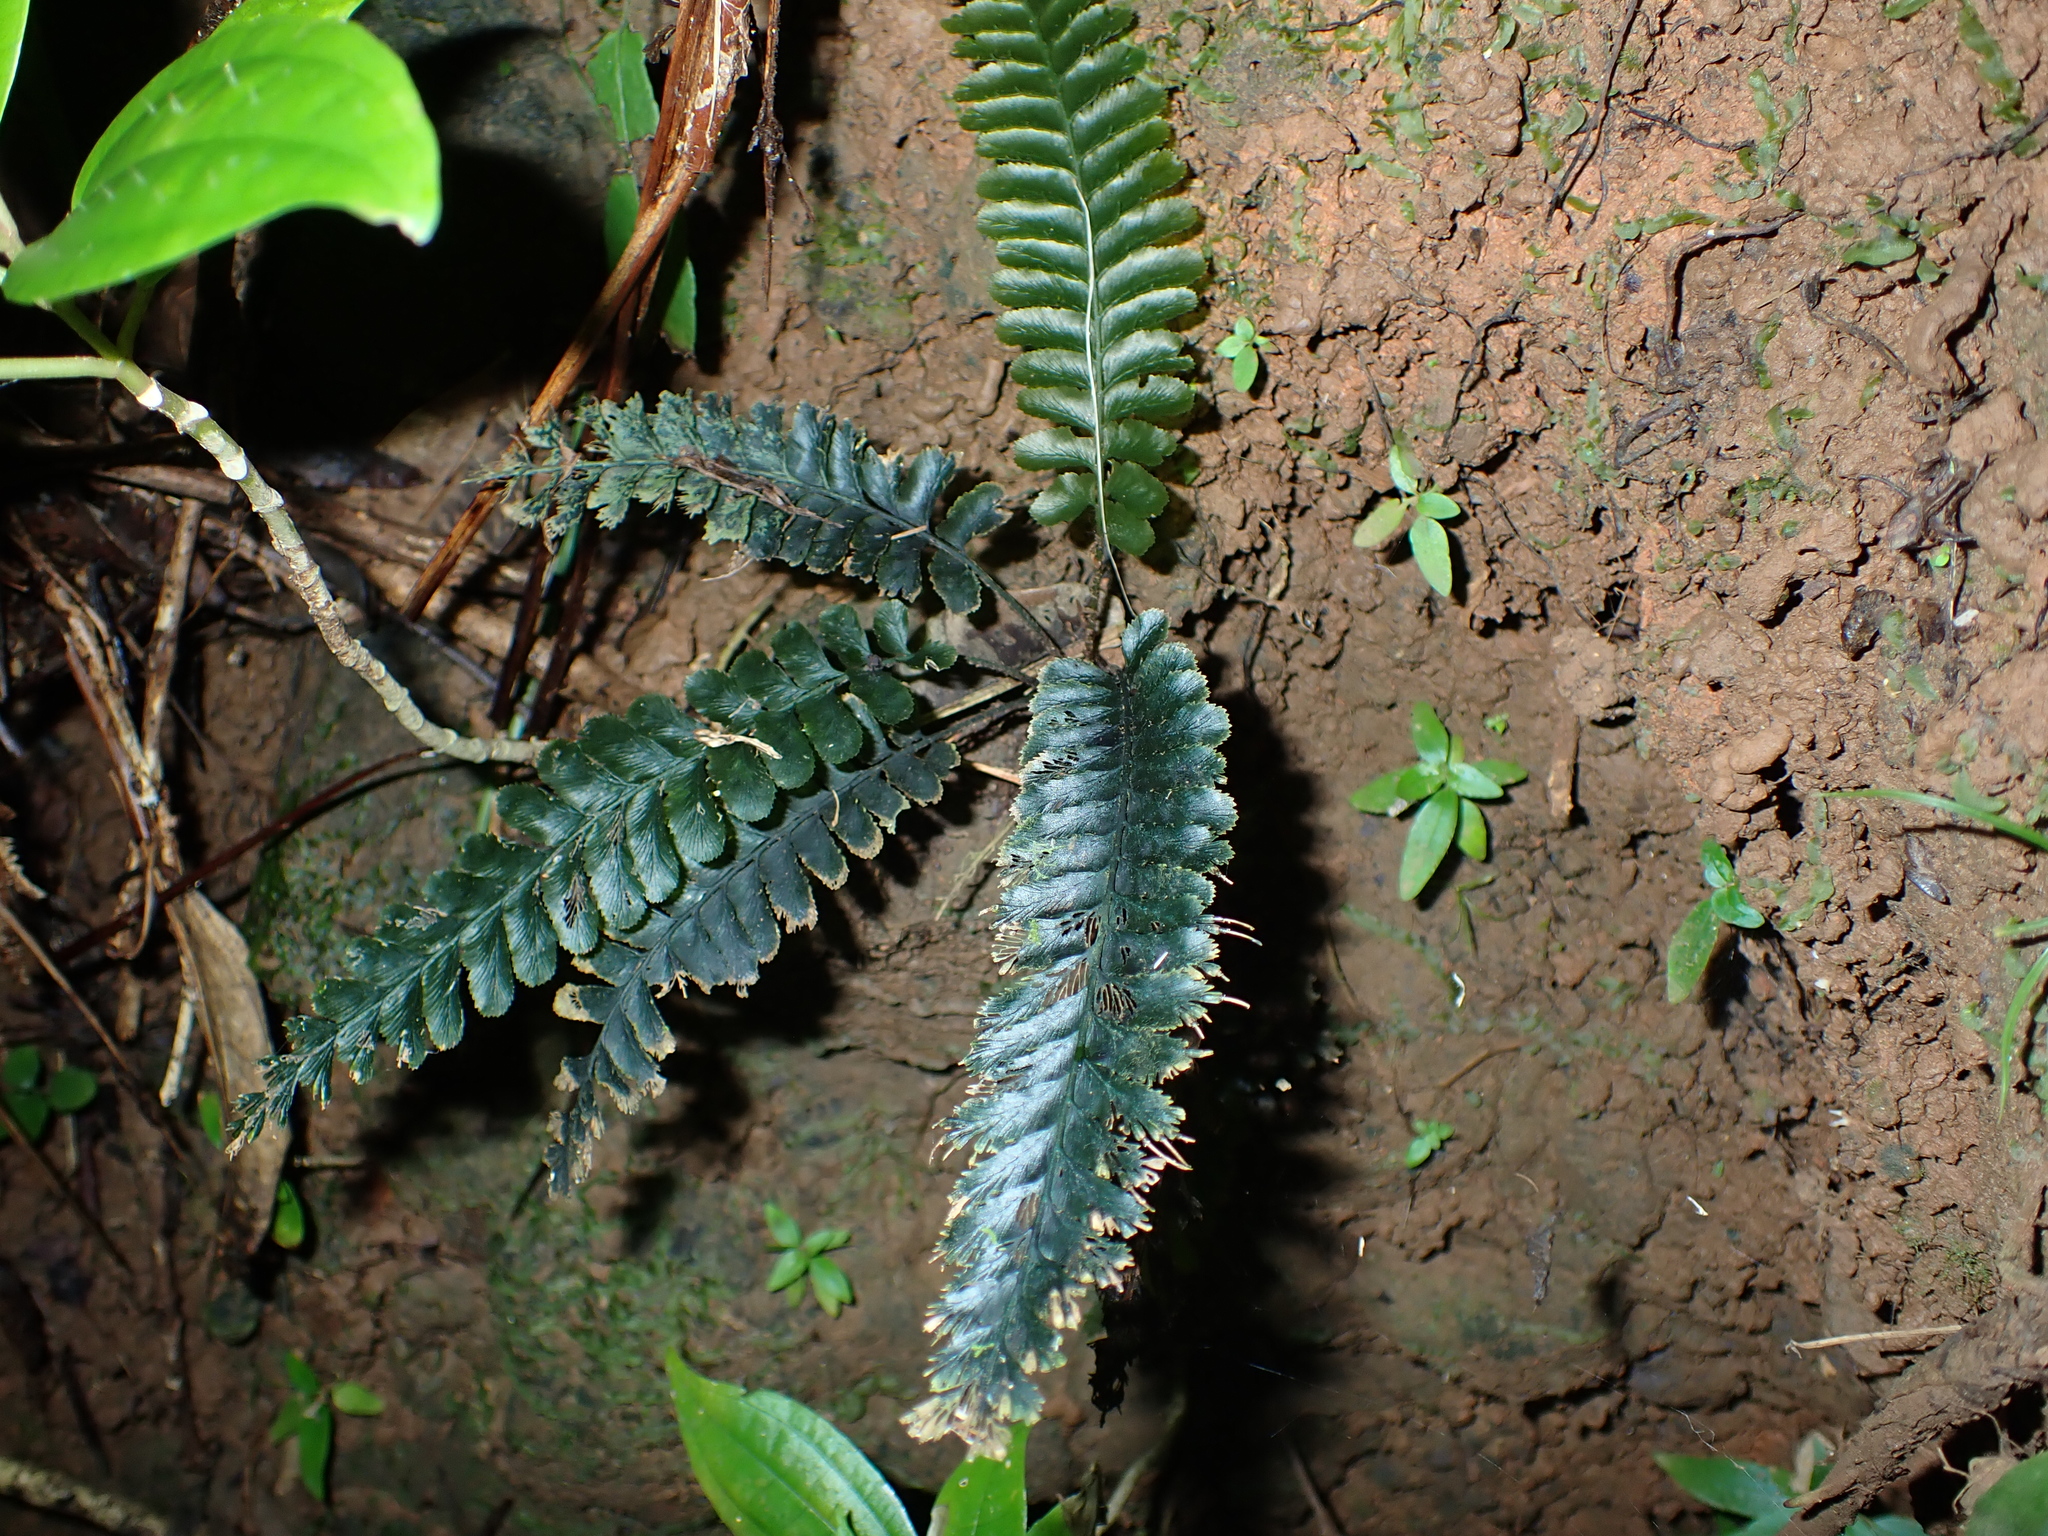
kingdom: Plantae
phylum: Tracheophyta
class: Polypodiopsida
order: Hymenophyllales
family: Hymenophyllaceae
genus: Cephalomanes
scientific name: Cephalomanes laciniatum
